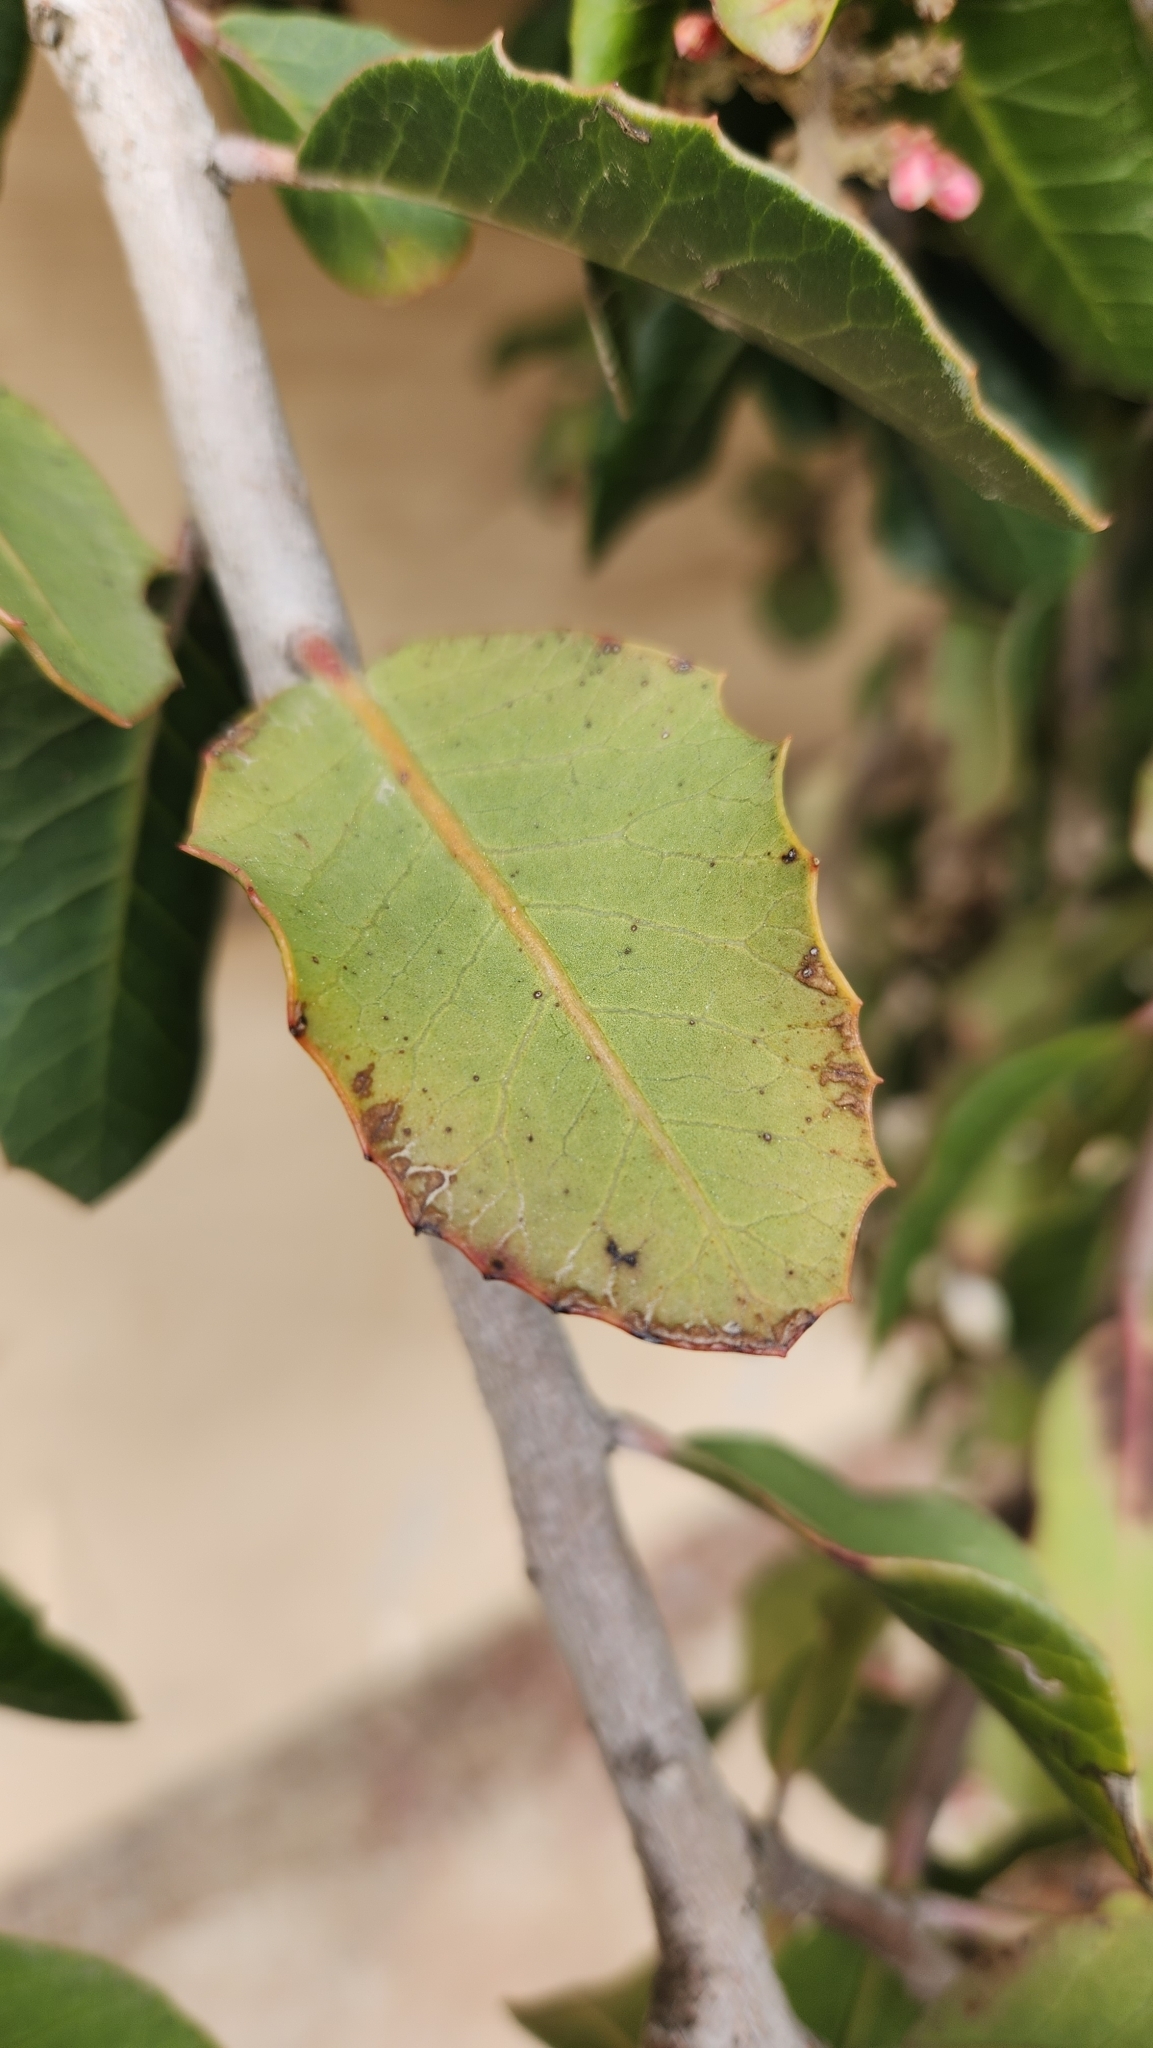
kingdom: Plantae
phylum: Tracheophyta
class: Magnoliopsida
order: Sapindales
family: Anacardiaceae
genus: Rhus
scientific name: Rhus integrifolia
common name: Lemonade sumac
